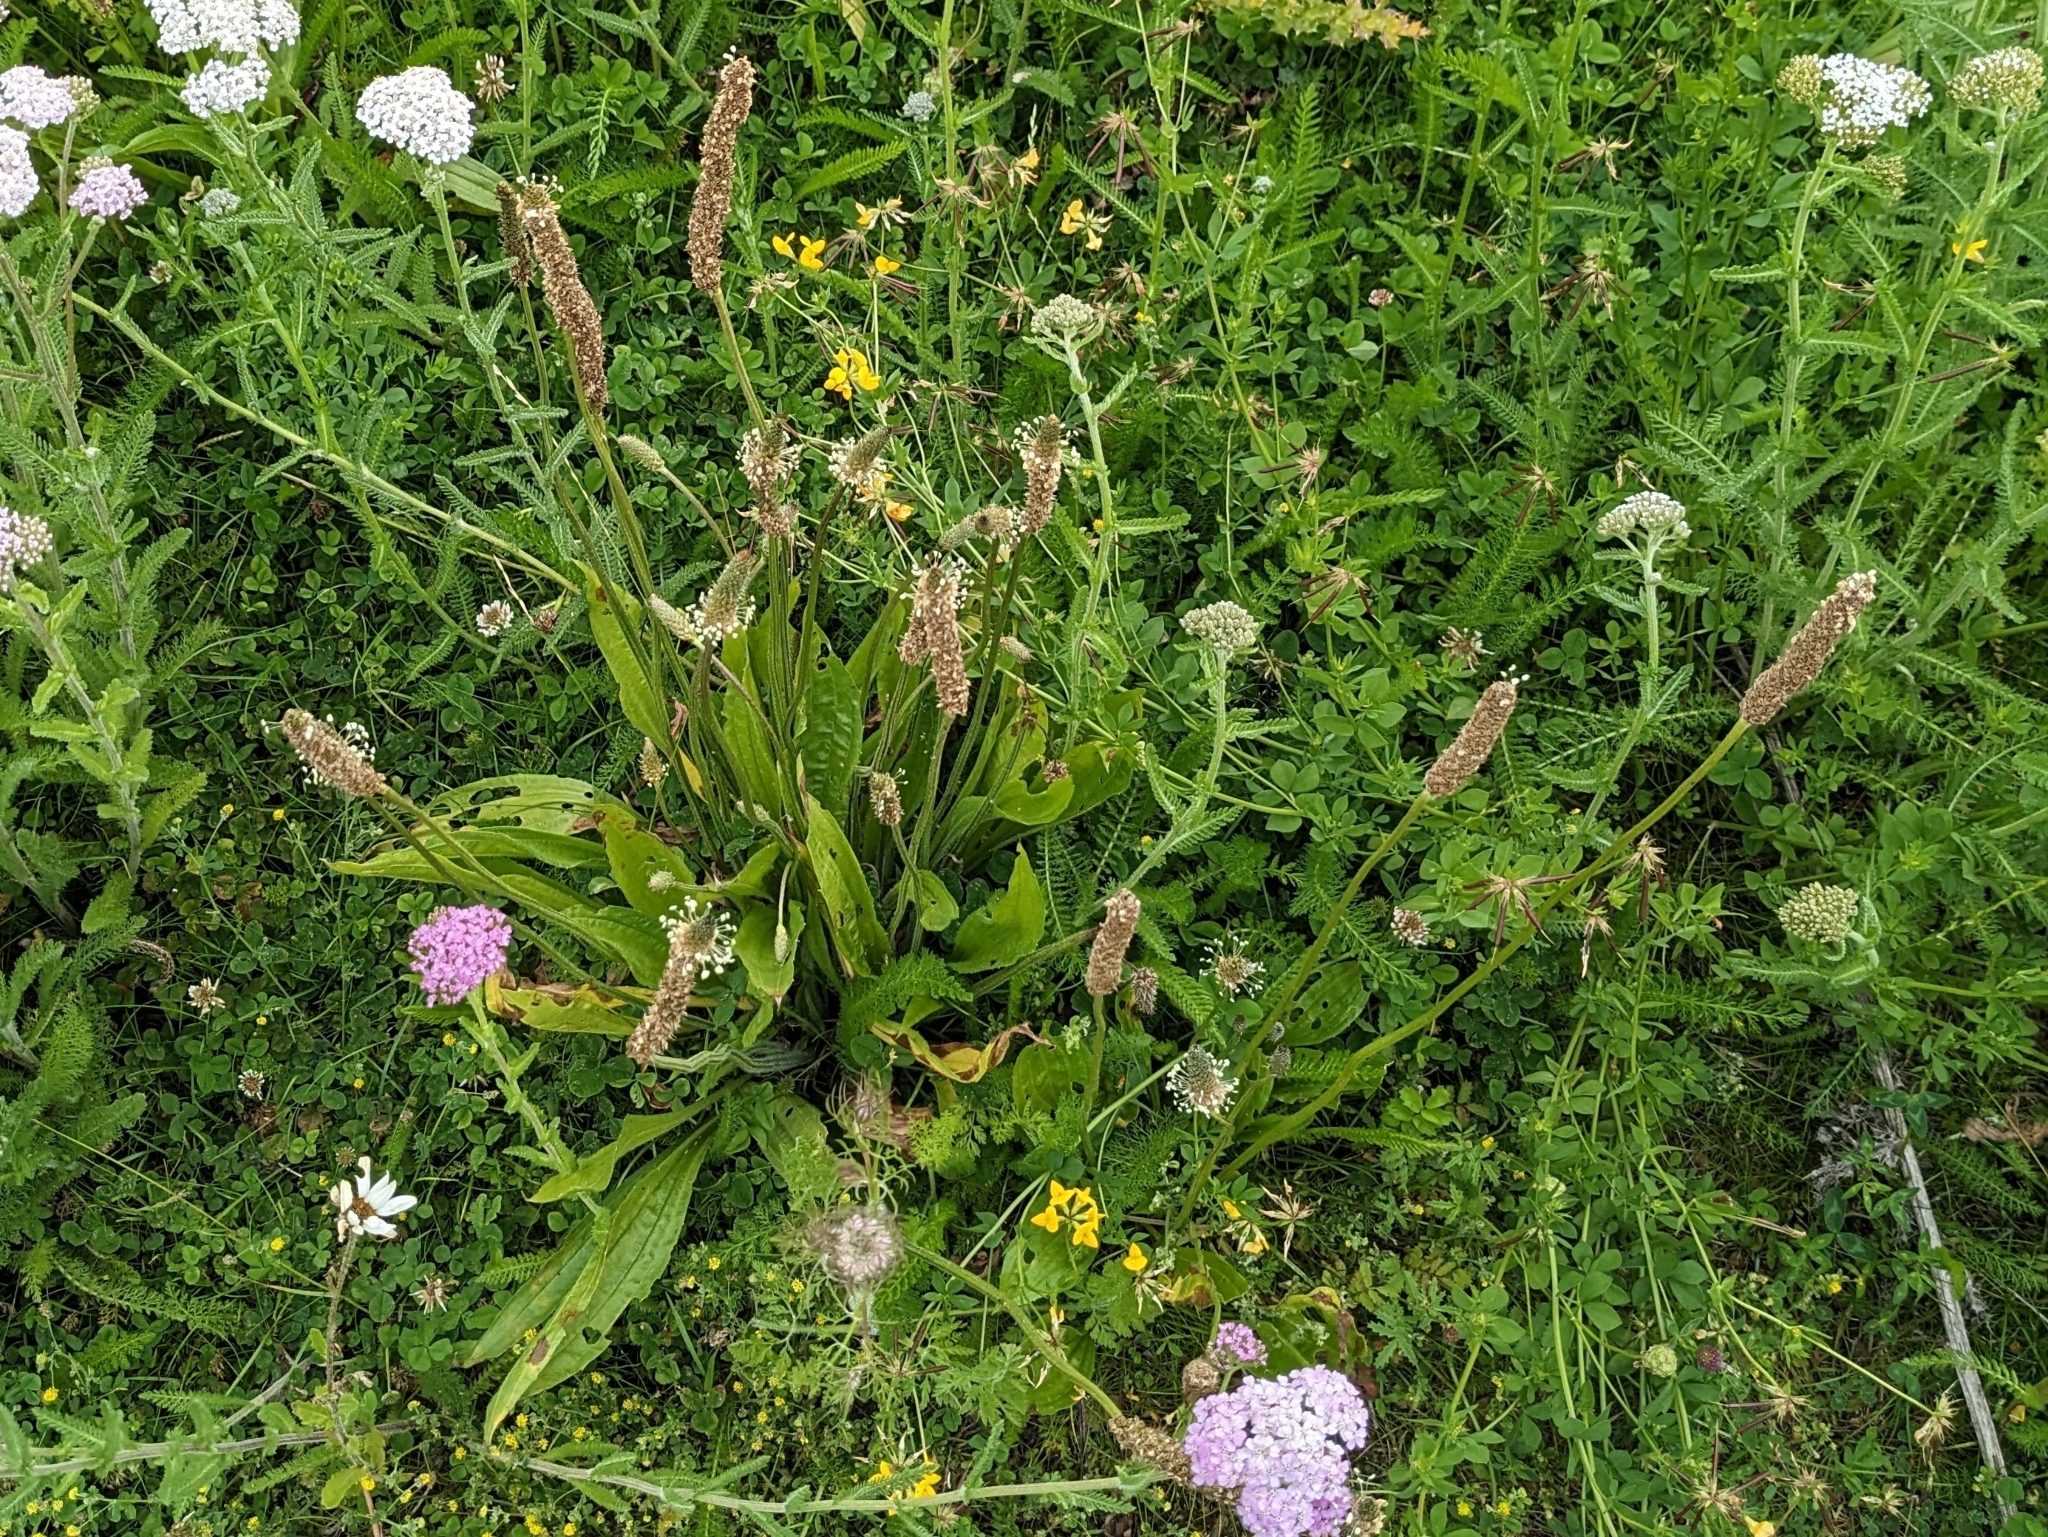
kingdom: Plantae
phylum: Tracheophyta
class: Magnoliopsida
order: Lamiales
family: Plantaginaceae
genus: Plantago
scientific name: Plantago lanceolata
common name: Ribwort plantain
